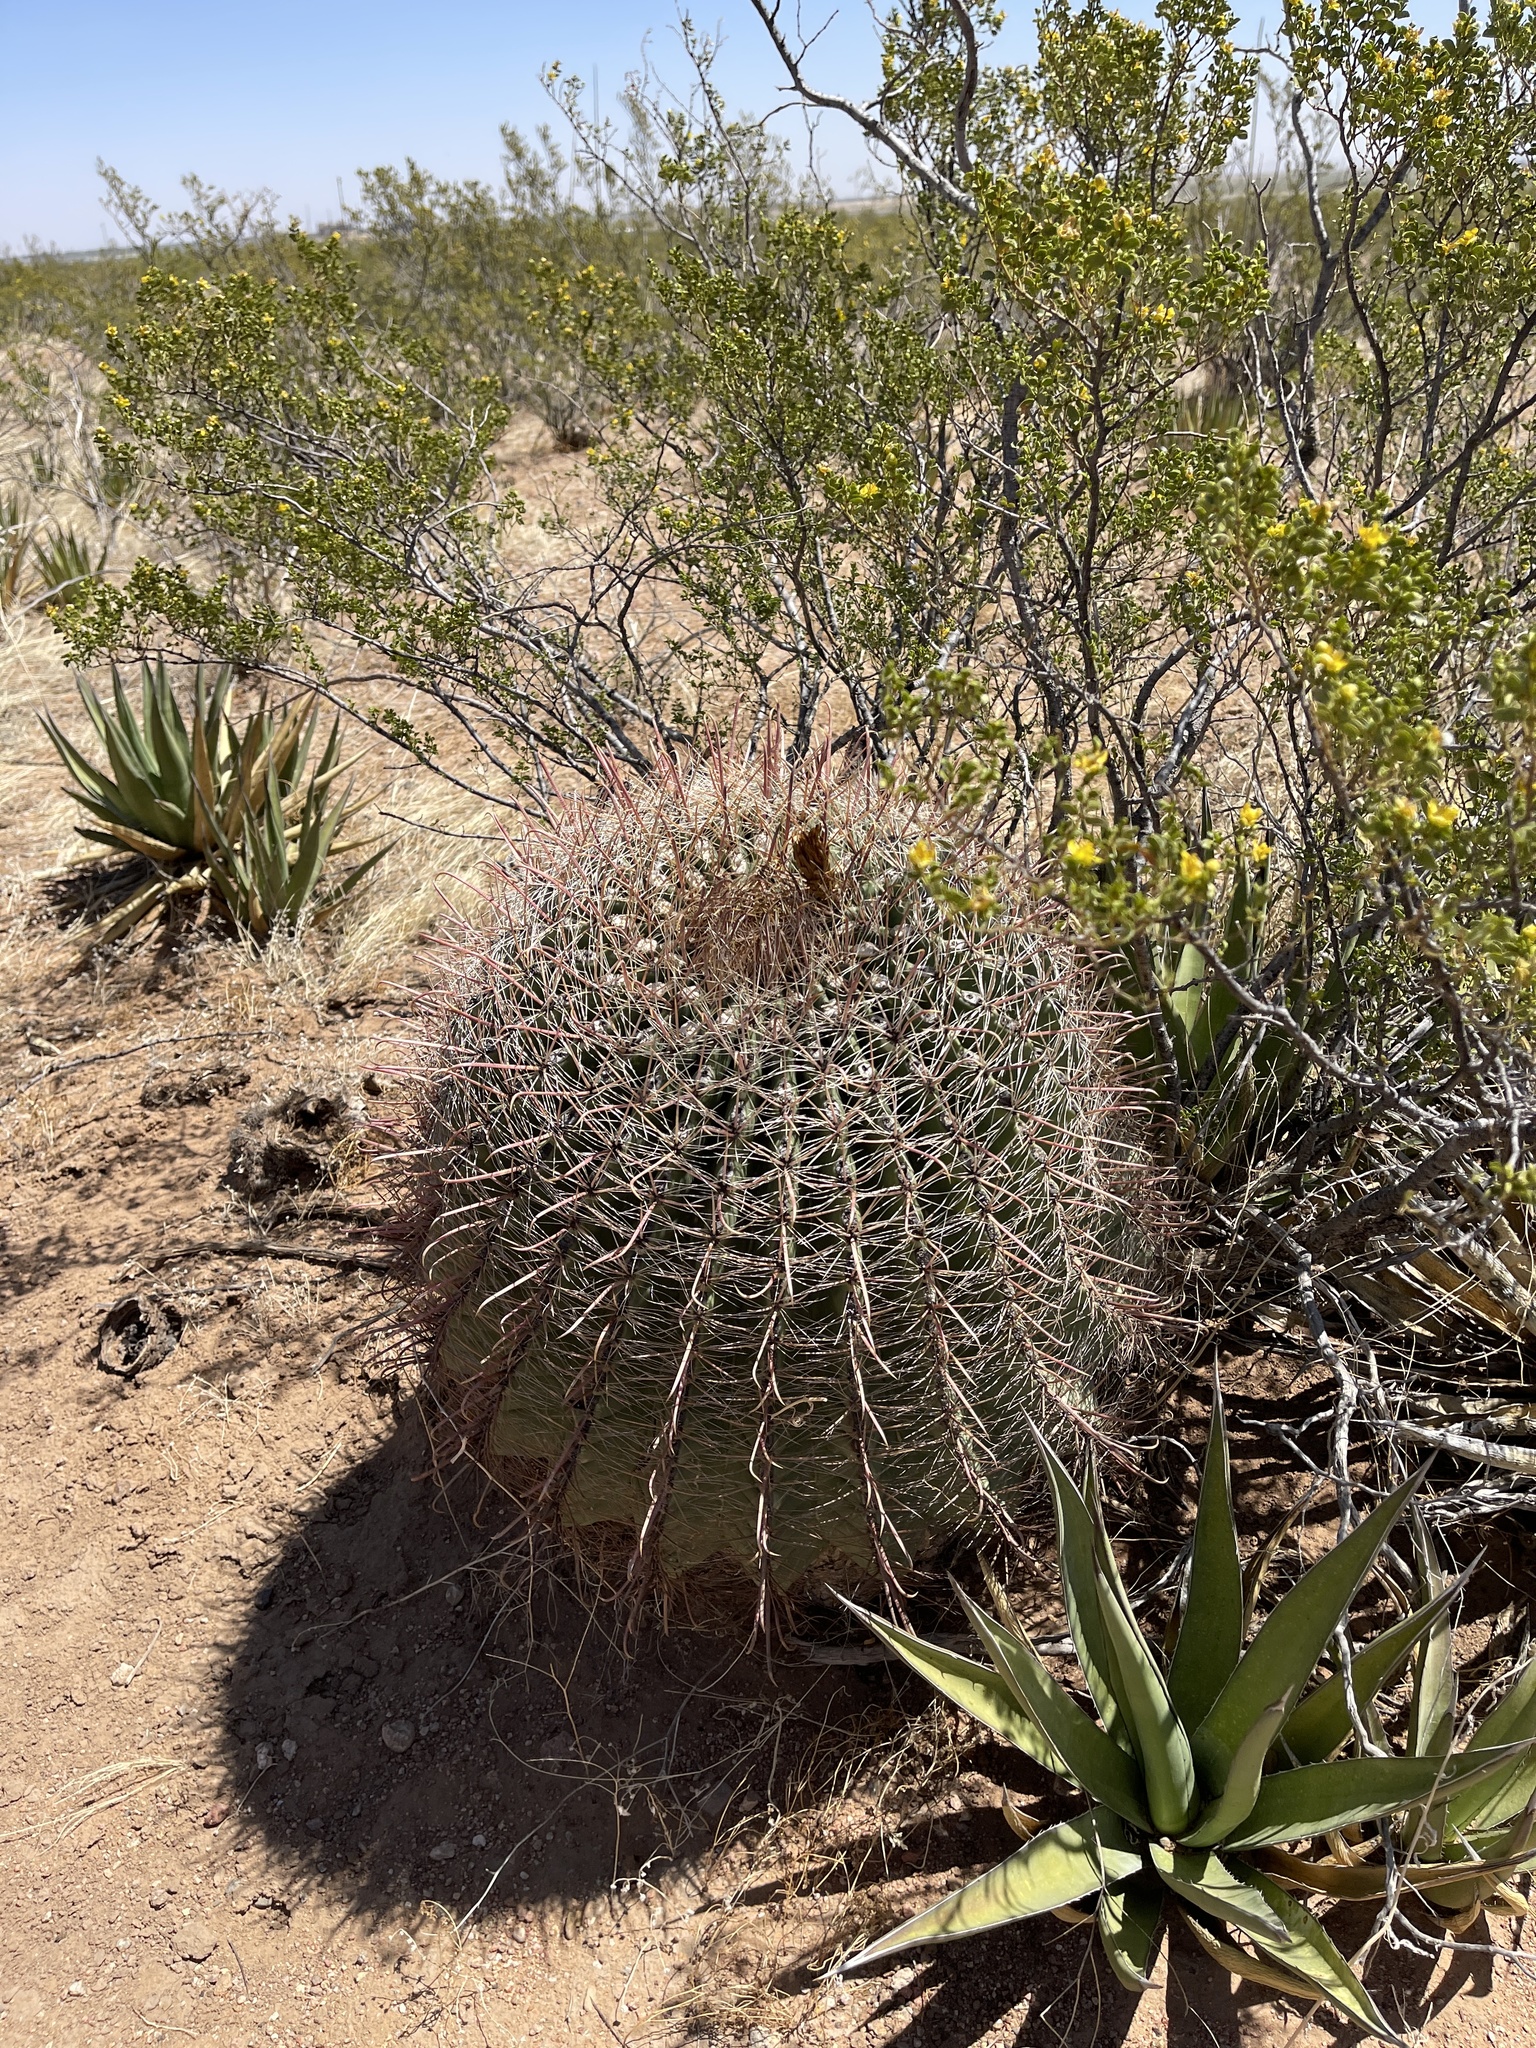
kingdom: Plantae
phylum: Tracheophyta
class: Magnoliopsida
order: Caryophyllales
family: Cactaceae
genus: Ferocactus
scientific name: Ferocactus wislizeni
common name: Candy barrel cactus
